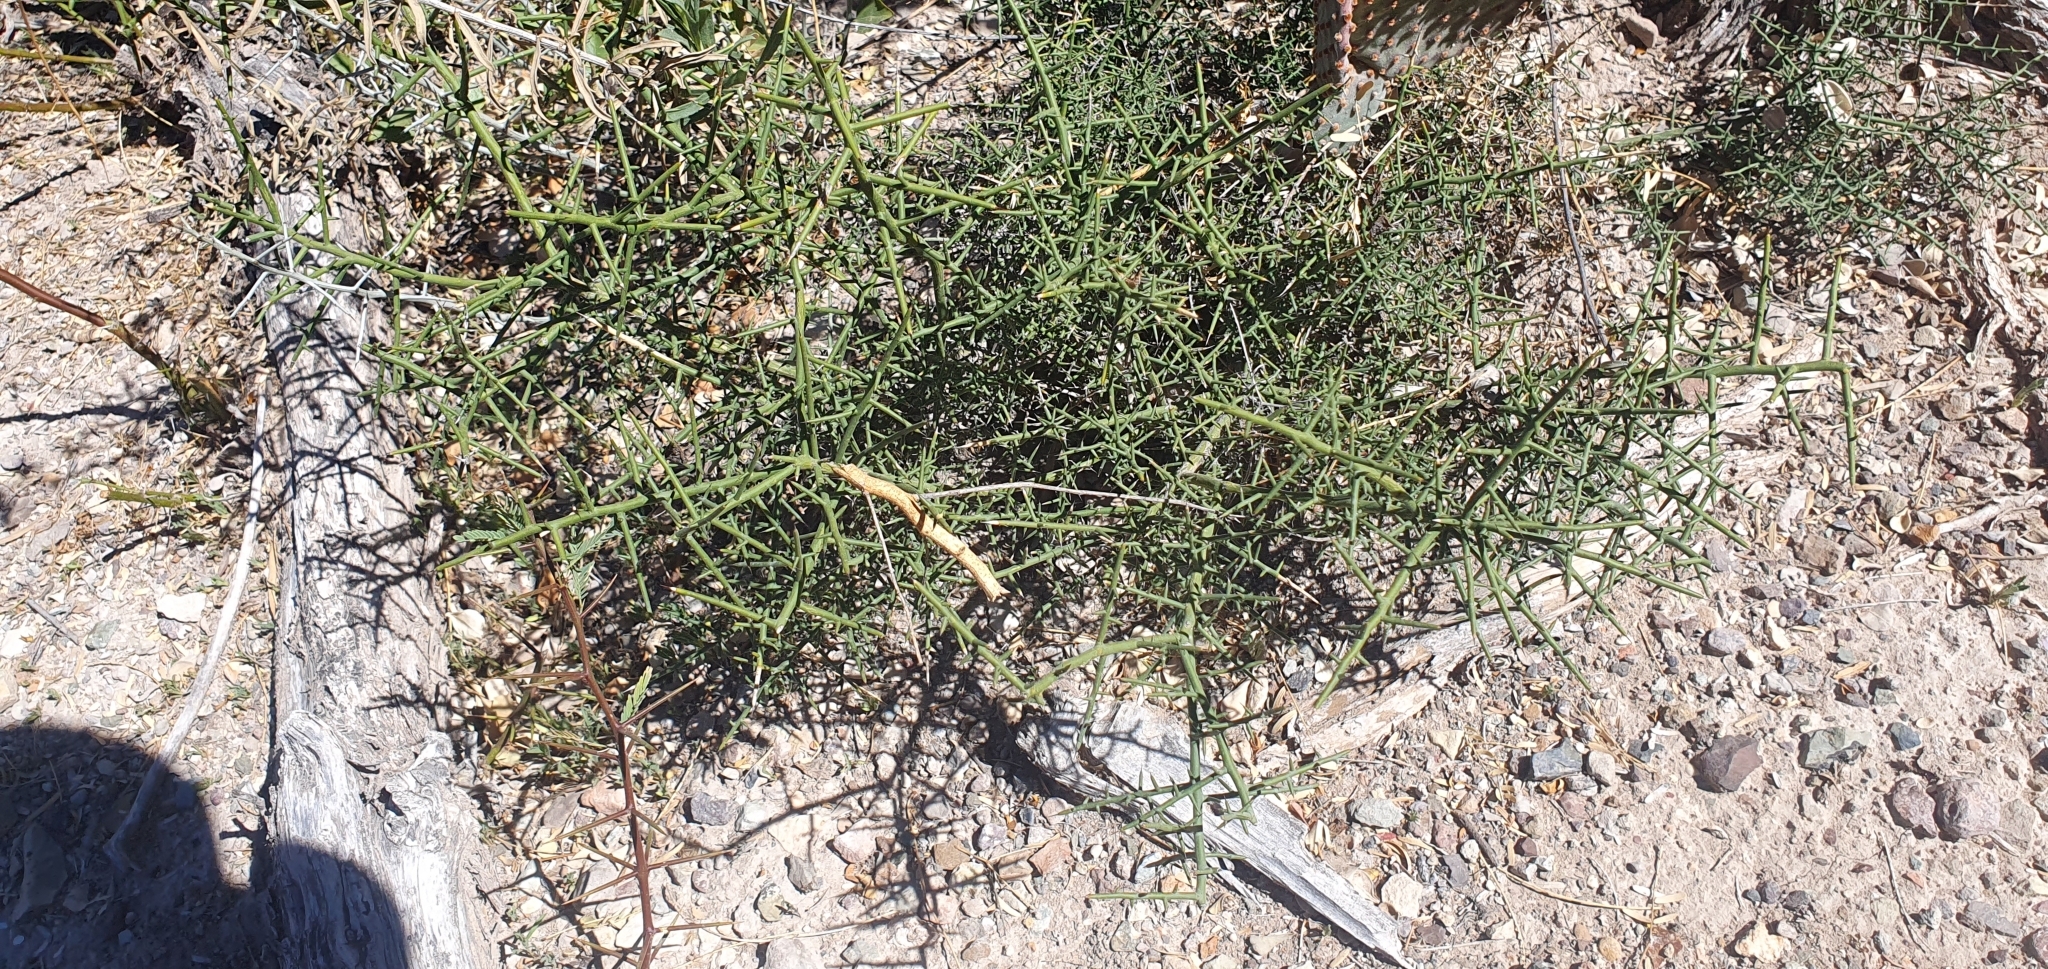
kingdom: Plantae
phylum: Tracheophyta
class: Magnoliopsida
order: Brassicales
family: Koeberliniaceae
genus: Koeberlinia
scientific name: Koeberlinia spinosa
